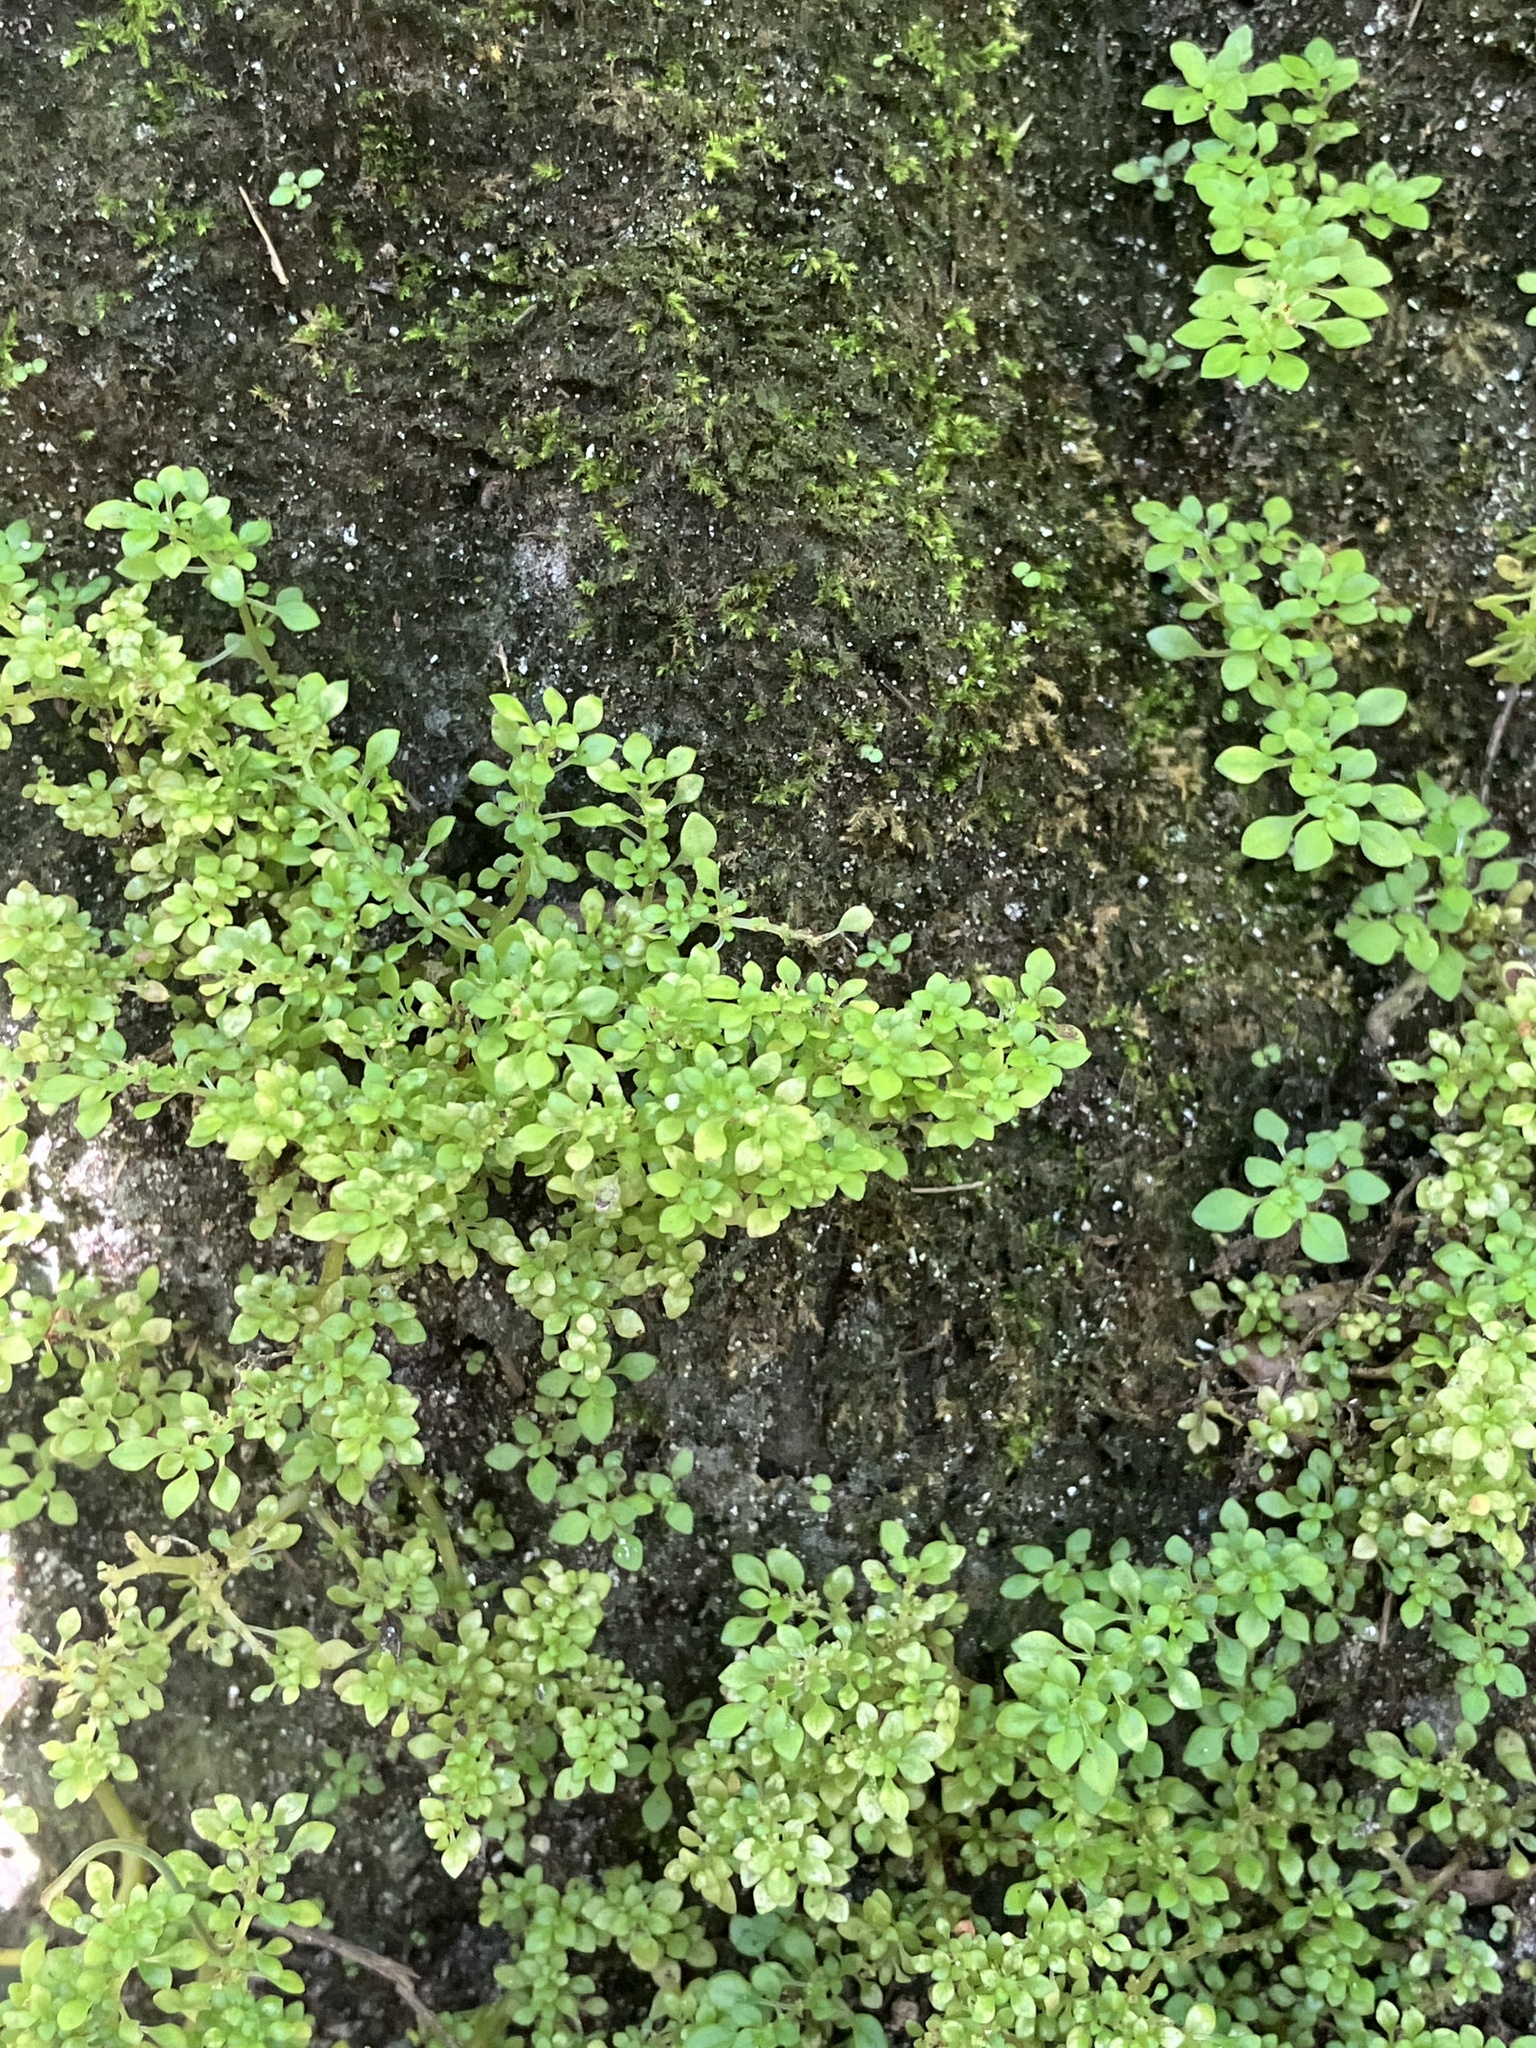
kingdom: Plantae
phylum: Tracheophyta
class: Magnoliopsida
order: Rosales
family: Urticaceae
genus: Pilea
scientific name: Pilea microphylla
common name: Artillery-plant
